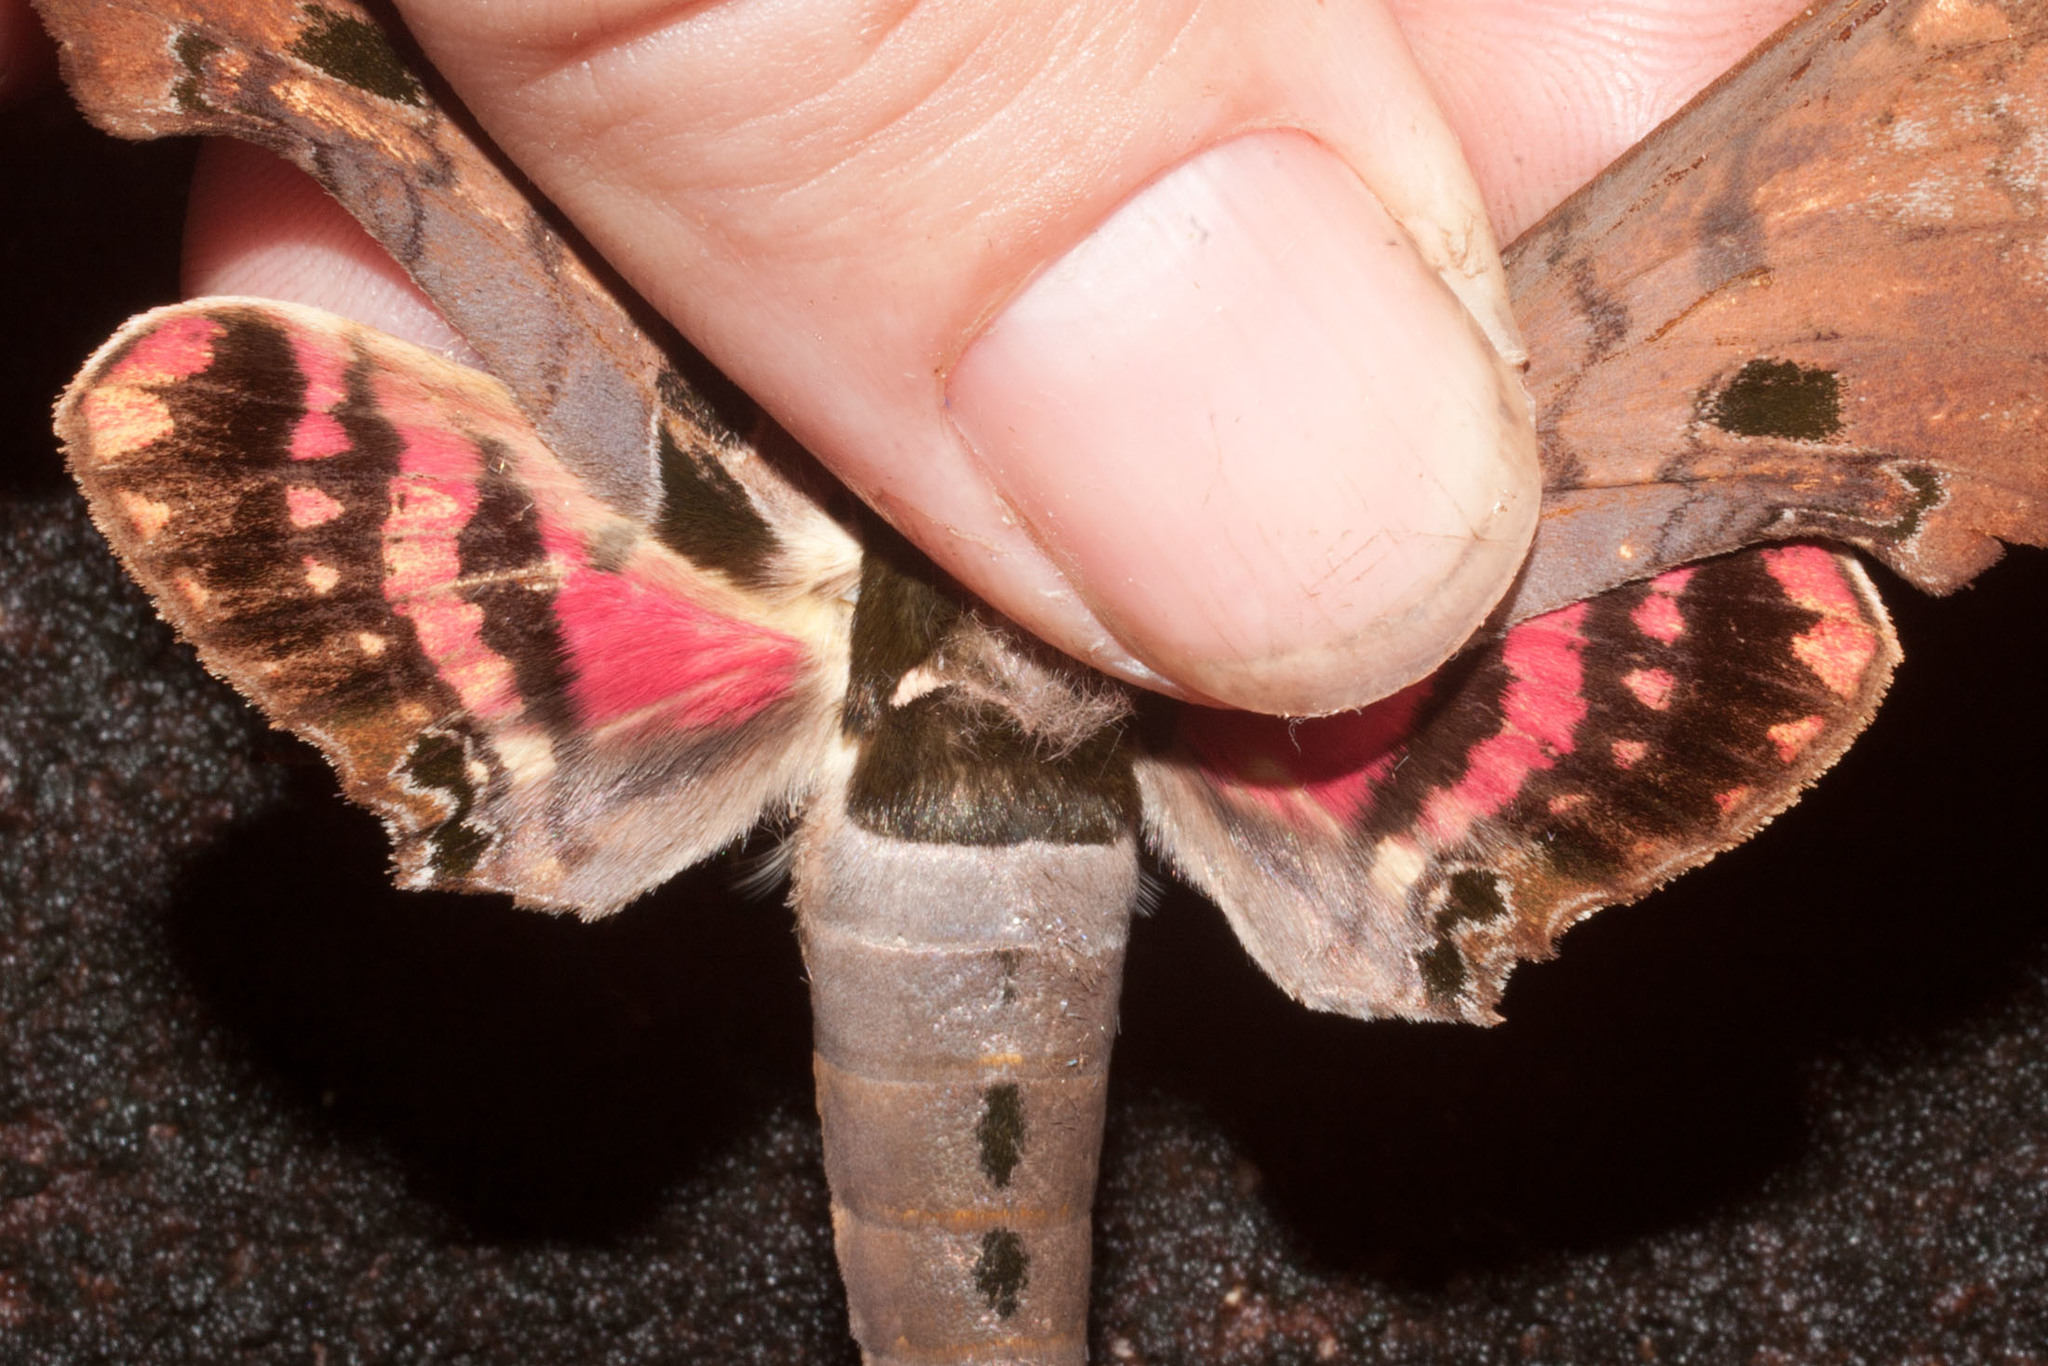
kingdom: Animalia
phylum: Arthropoda
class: Insecta
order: Lepidoptera
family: Sphingidae
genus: Adhemarius
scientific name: Adhemarius gannascus
